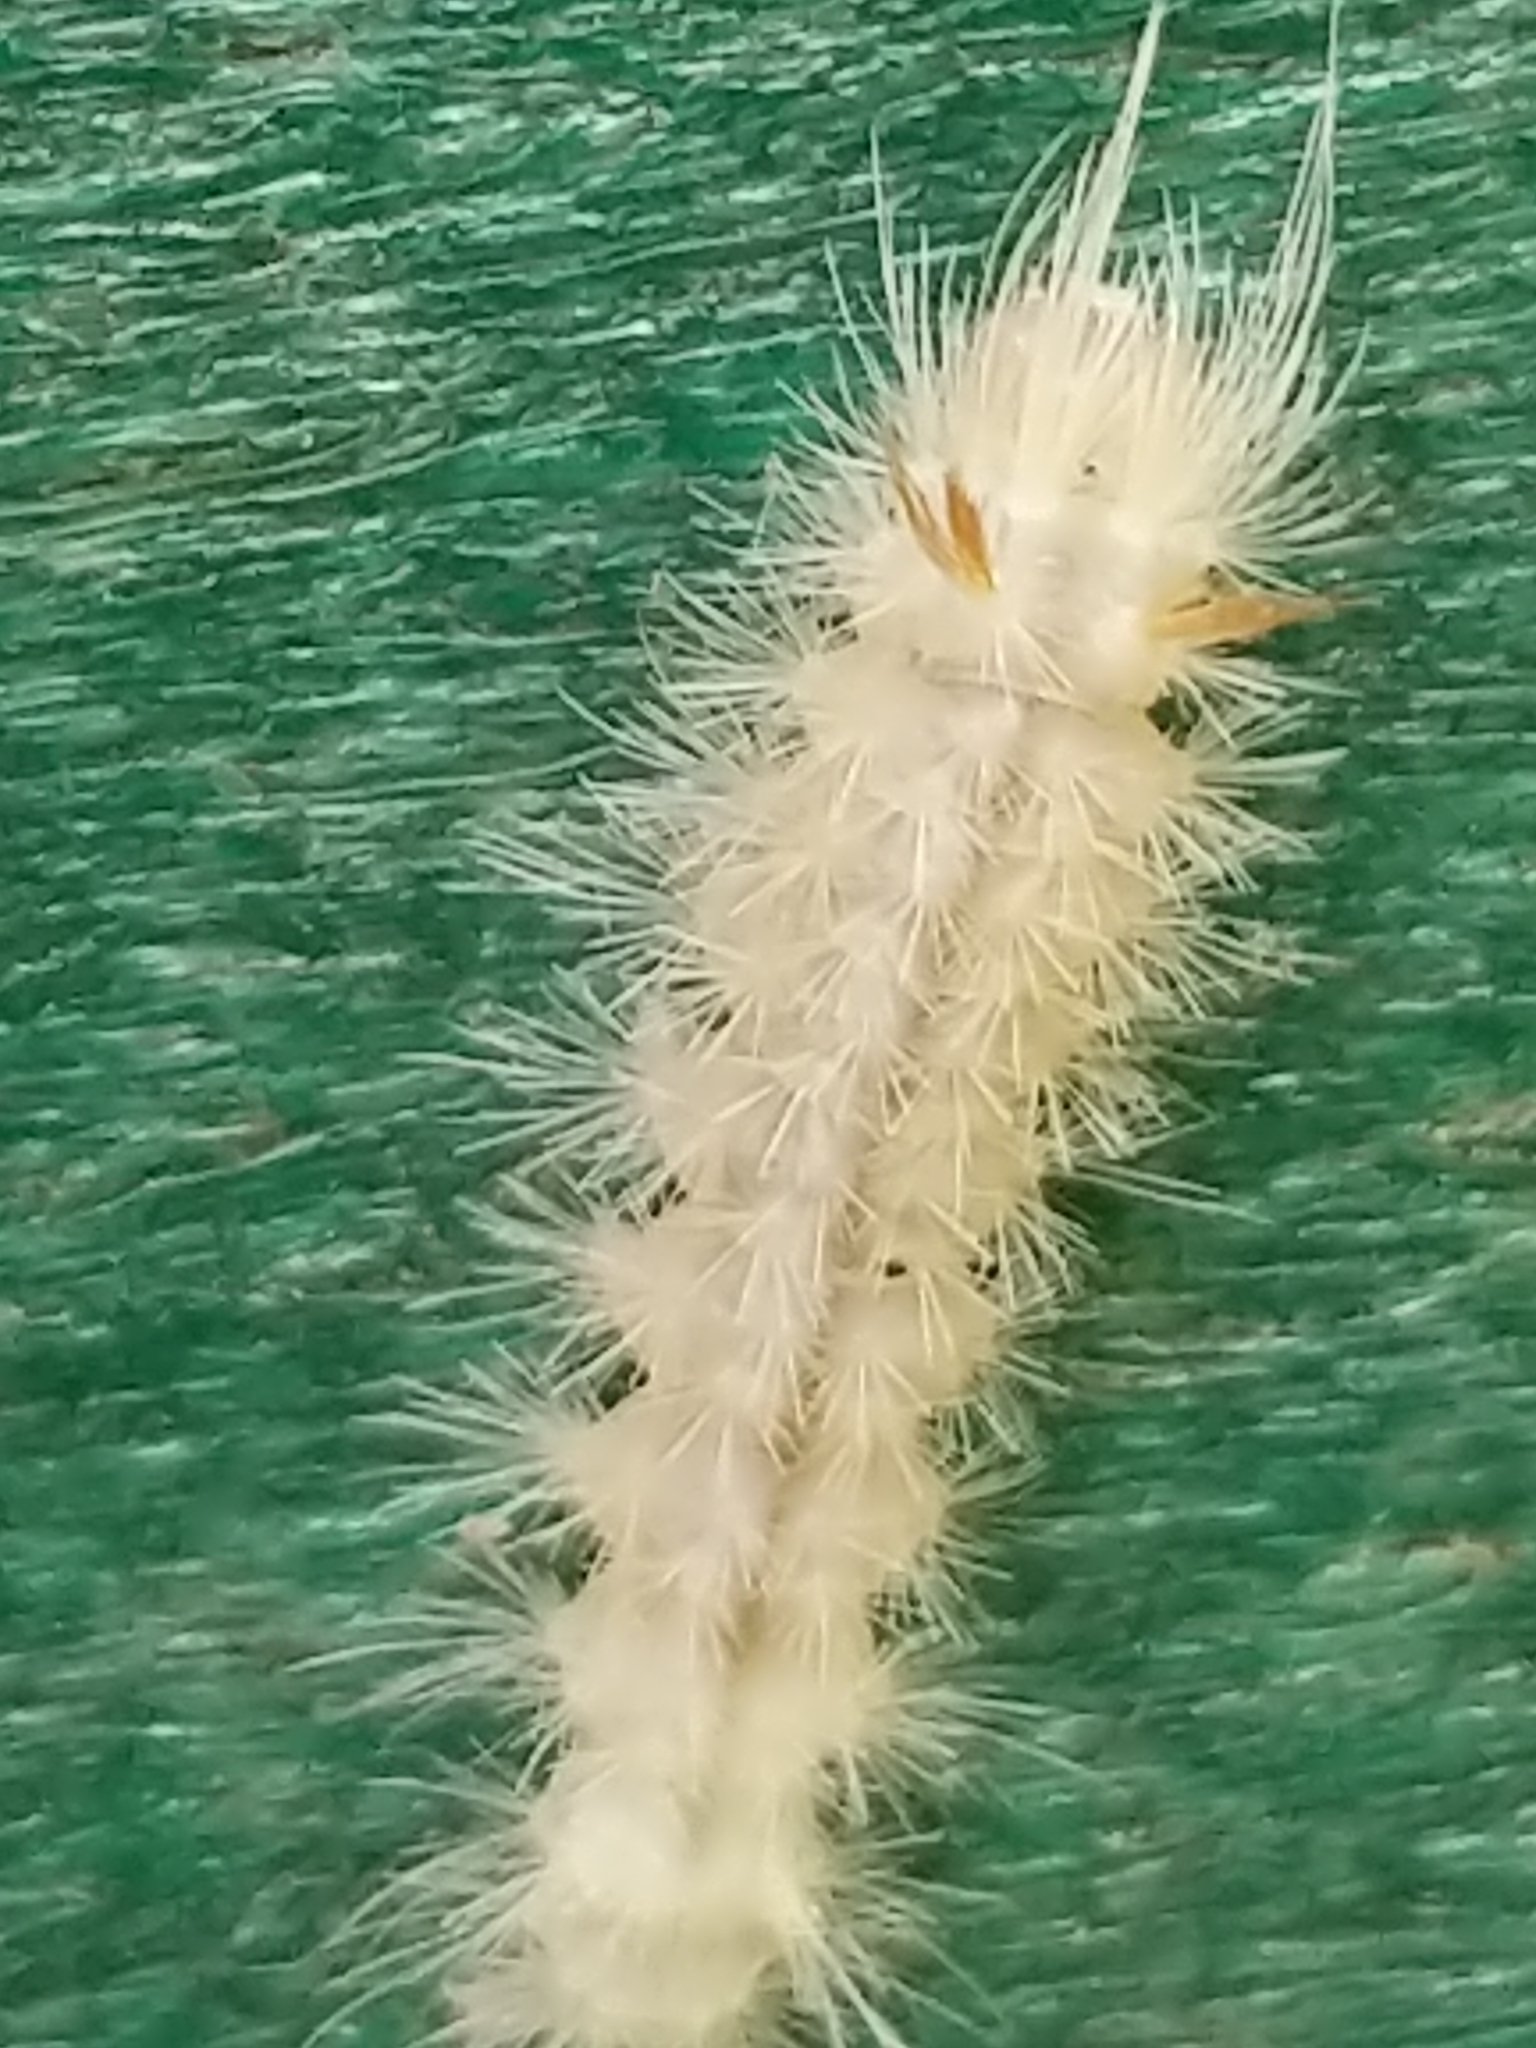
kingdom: Animalia
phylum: Arthropoda
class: Insecta
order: Lepidoptera
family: Erebidae
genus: Halysidota
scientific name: Halysidota harrisii
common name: Sycamore tussock moth
